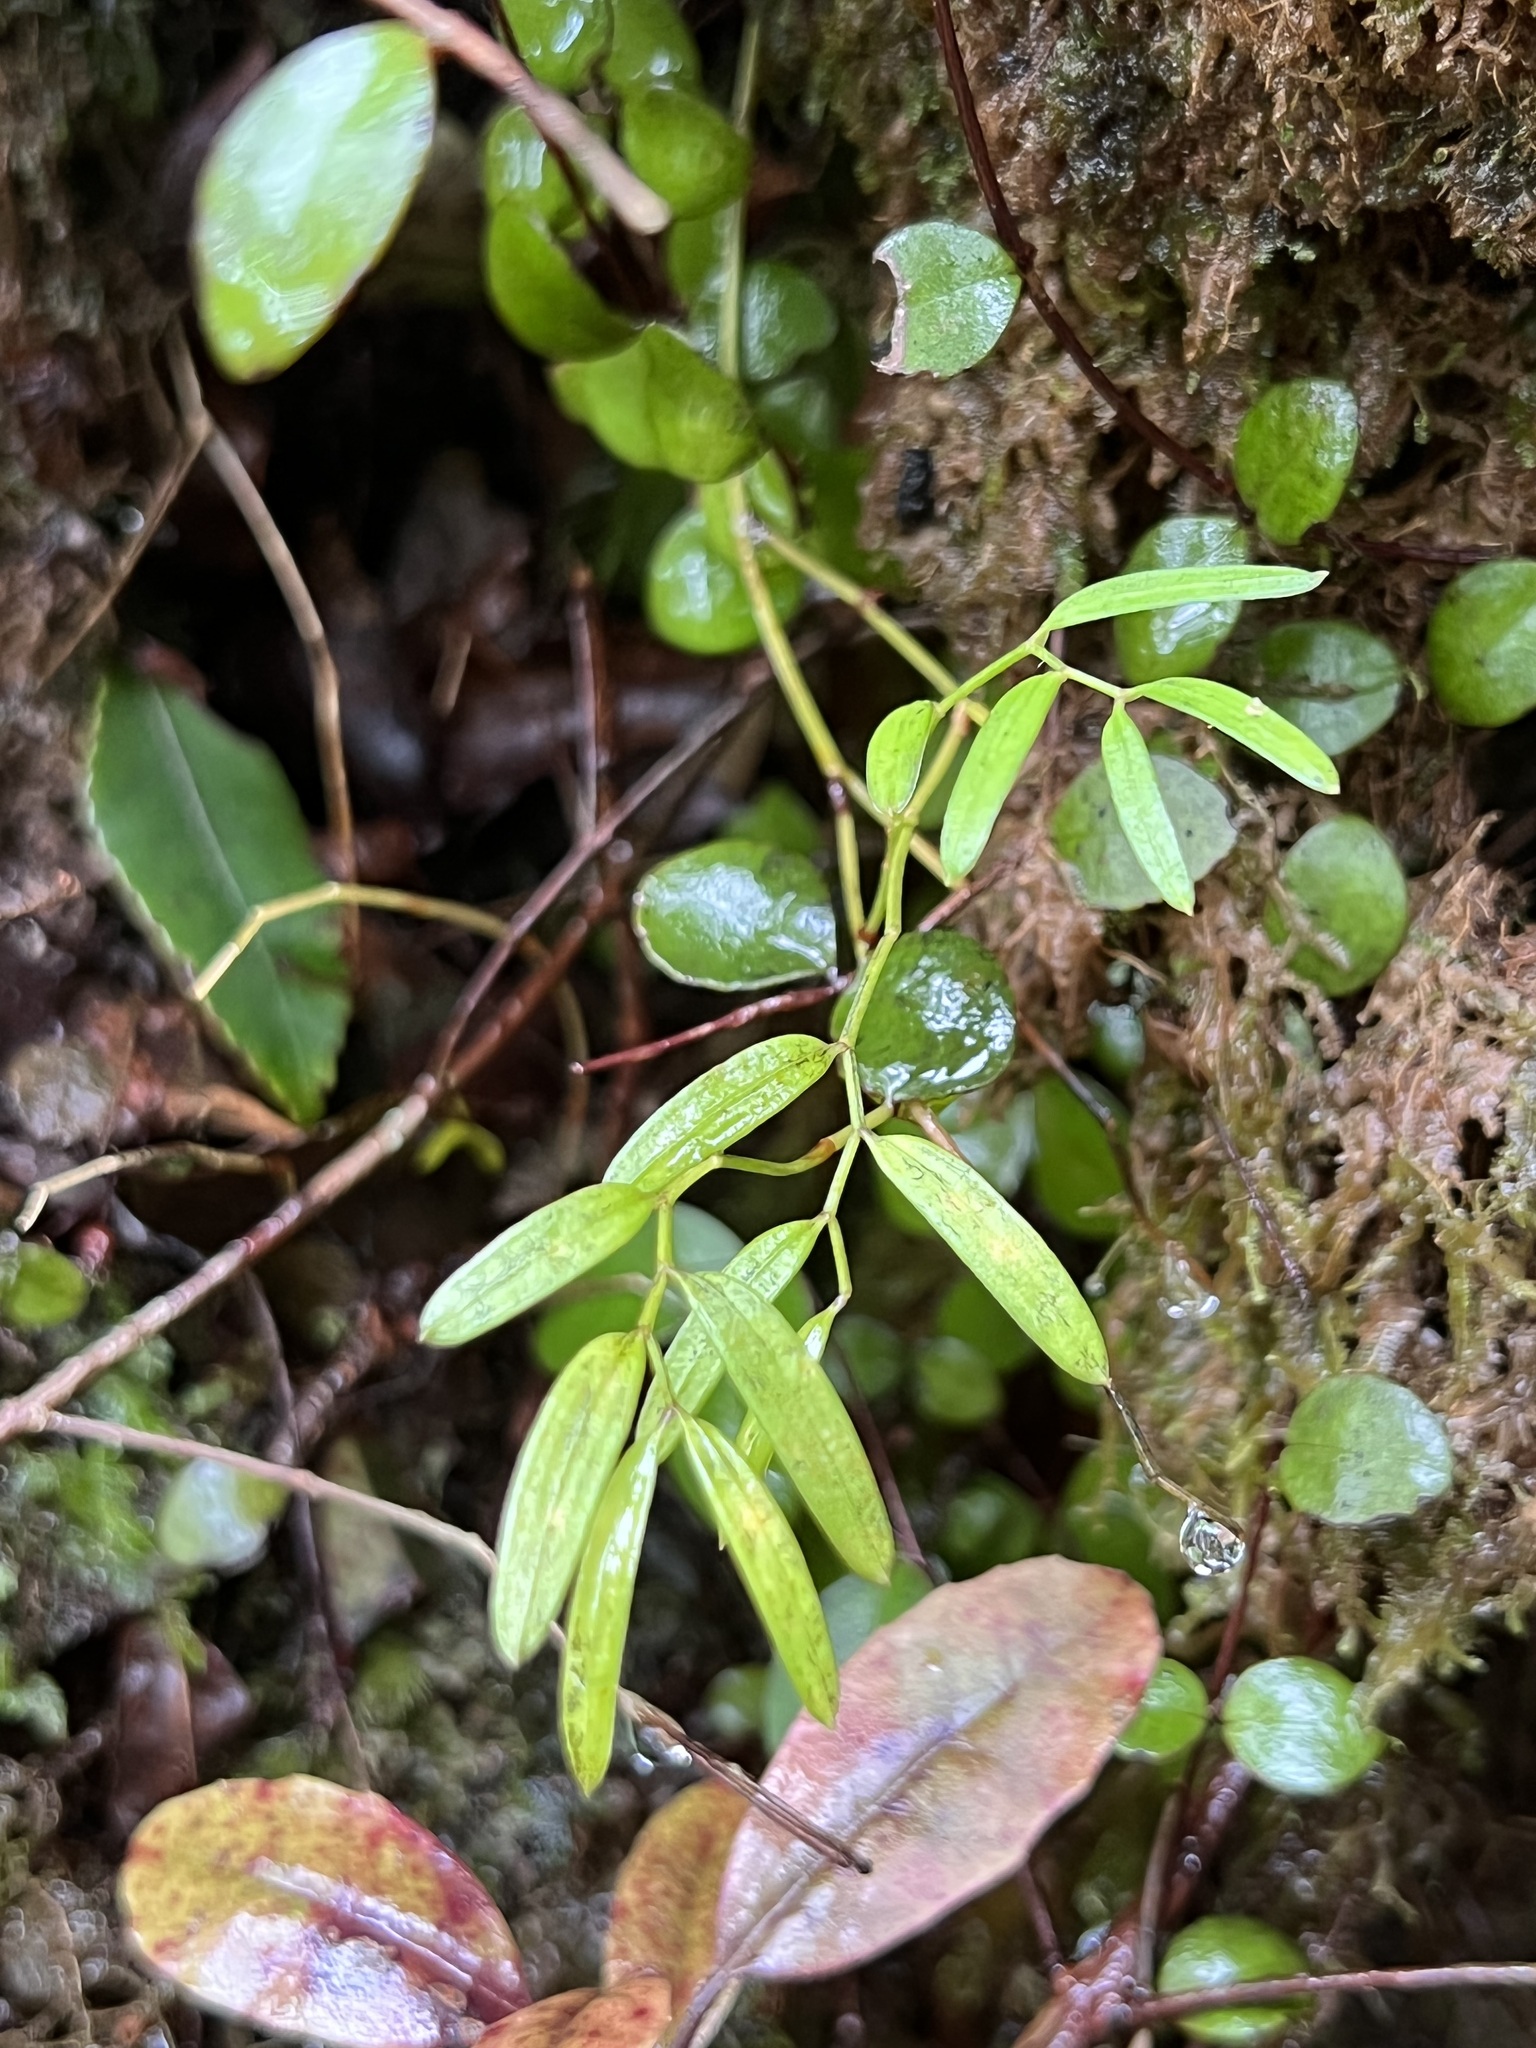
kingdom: Plantae
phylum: Tracheophyta
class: Liliopsida
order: Liliales
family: Alstroemeriaceae
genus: Luzuriaga
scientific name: Luzuriaga parviflora
